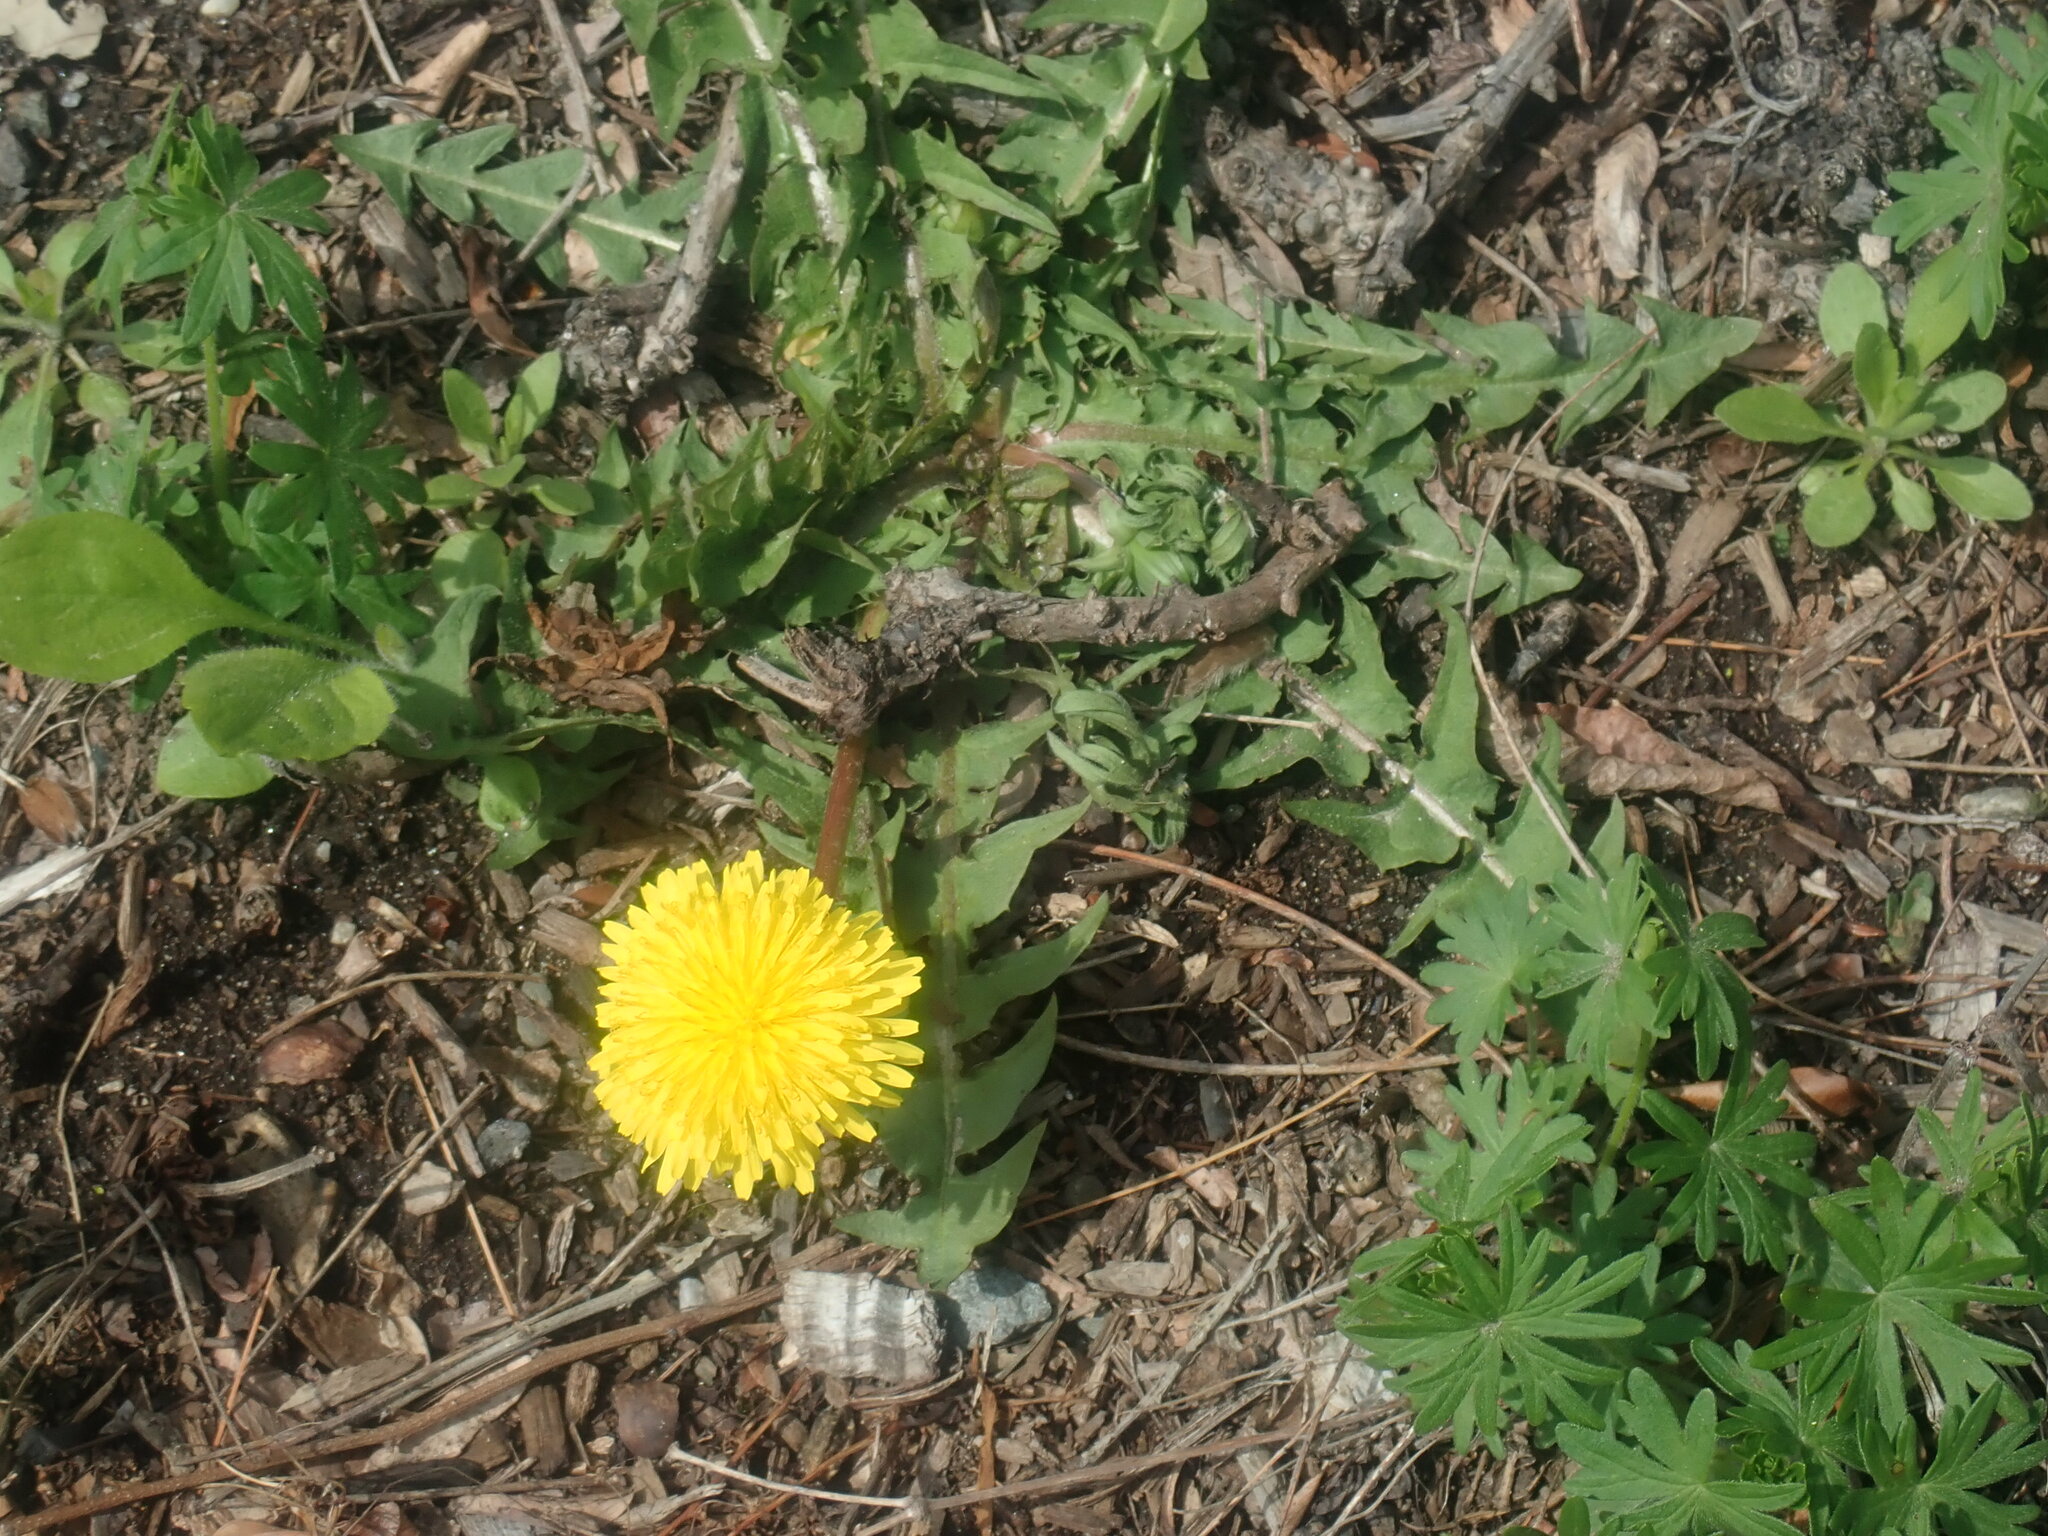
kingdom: Plantae
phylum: Tracheophyta
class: Magnoliopsida
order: Asterales
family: Asteraceae
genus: Taraxacum
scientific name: Taraxacum
